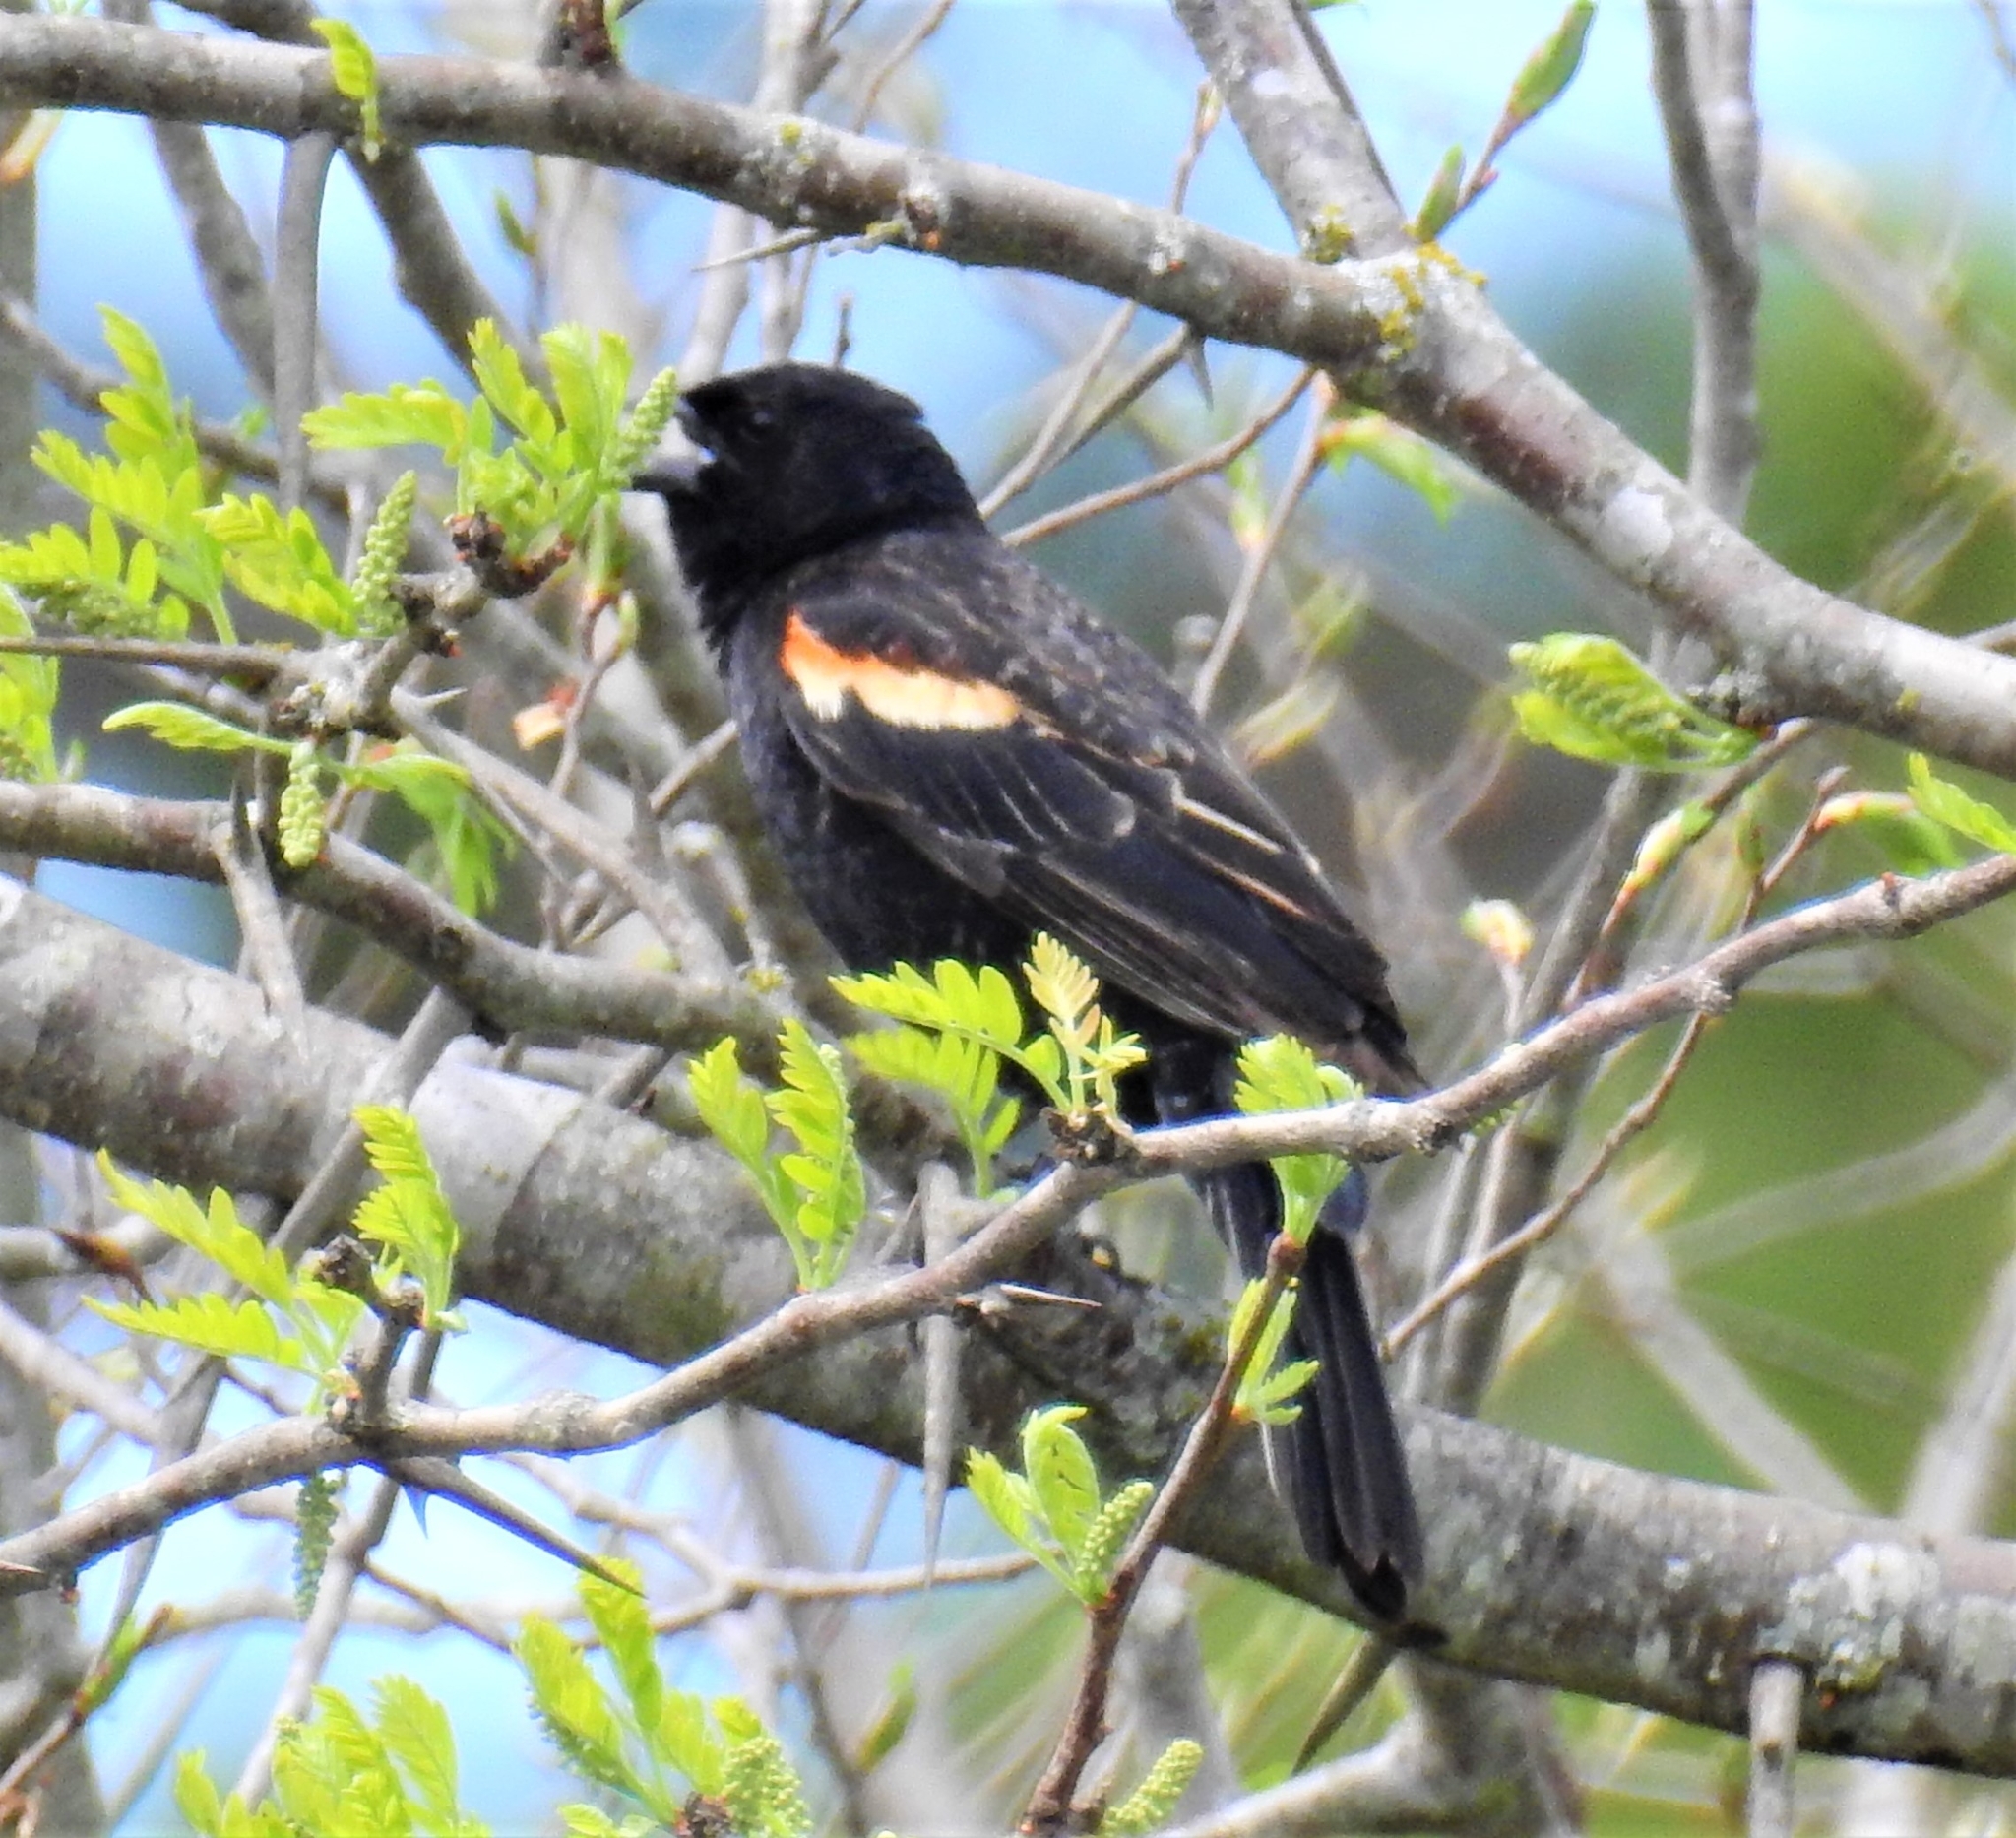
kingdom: Animalia
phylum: Chordata
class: Aves
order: Passeriformes
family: Icteridae
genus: Agelaius
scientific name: Agelaius phoeniceus
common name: Red-winged blackbird
